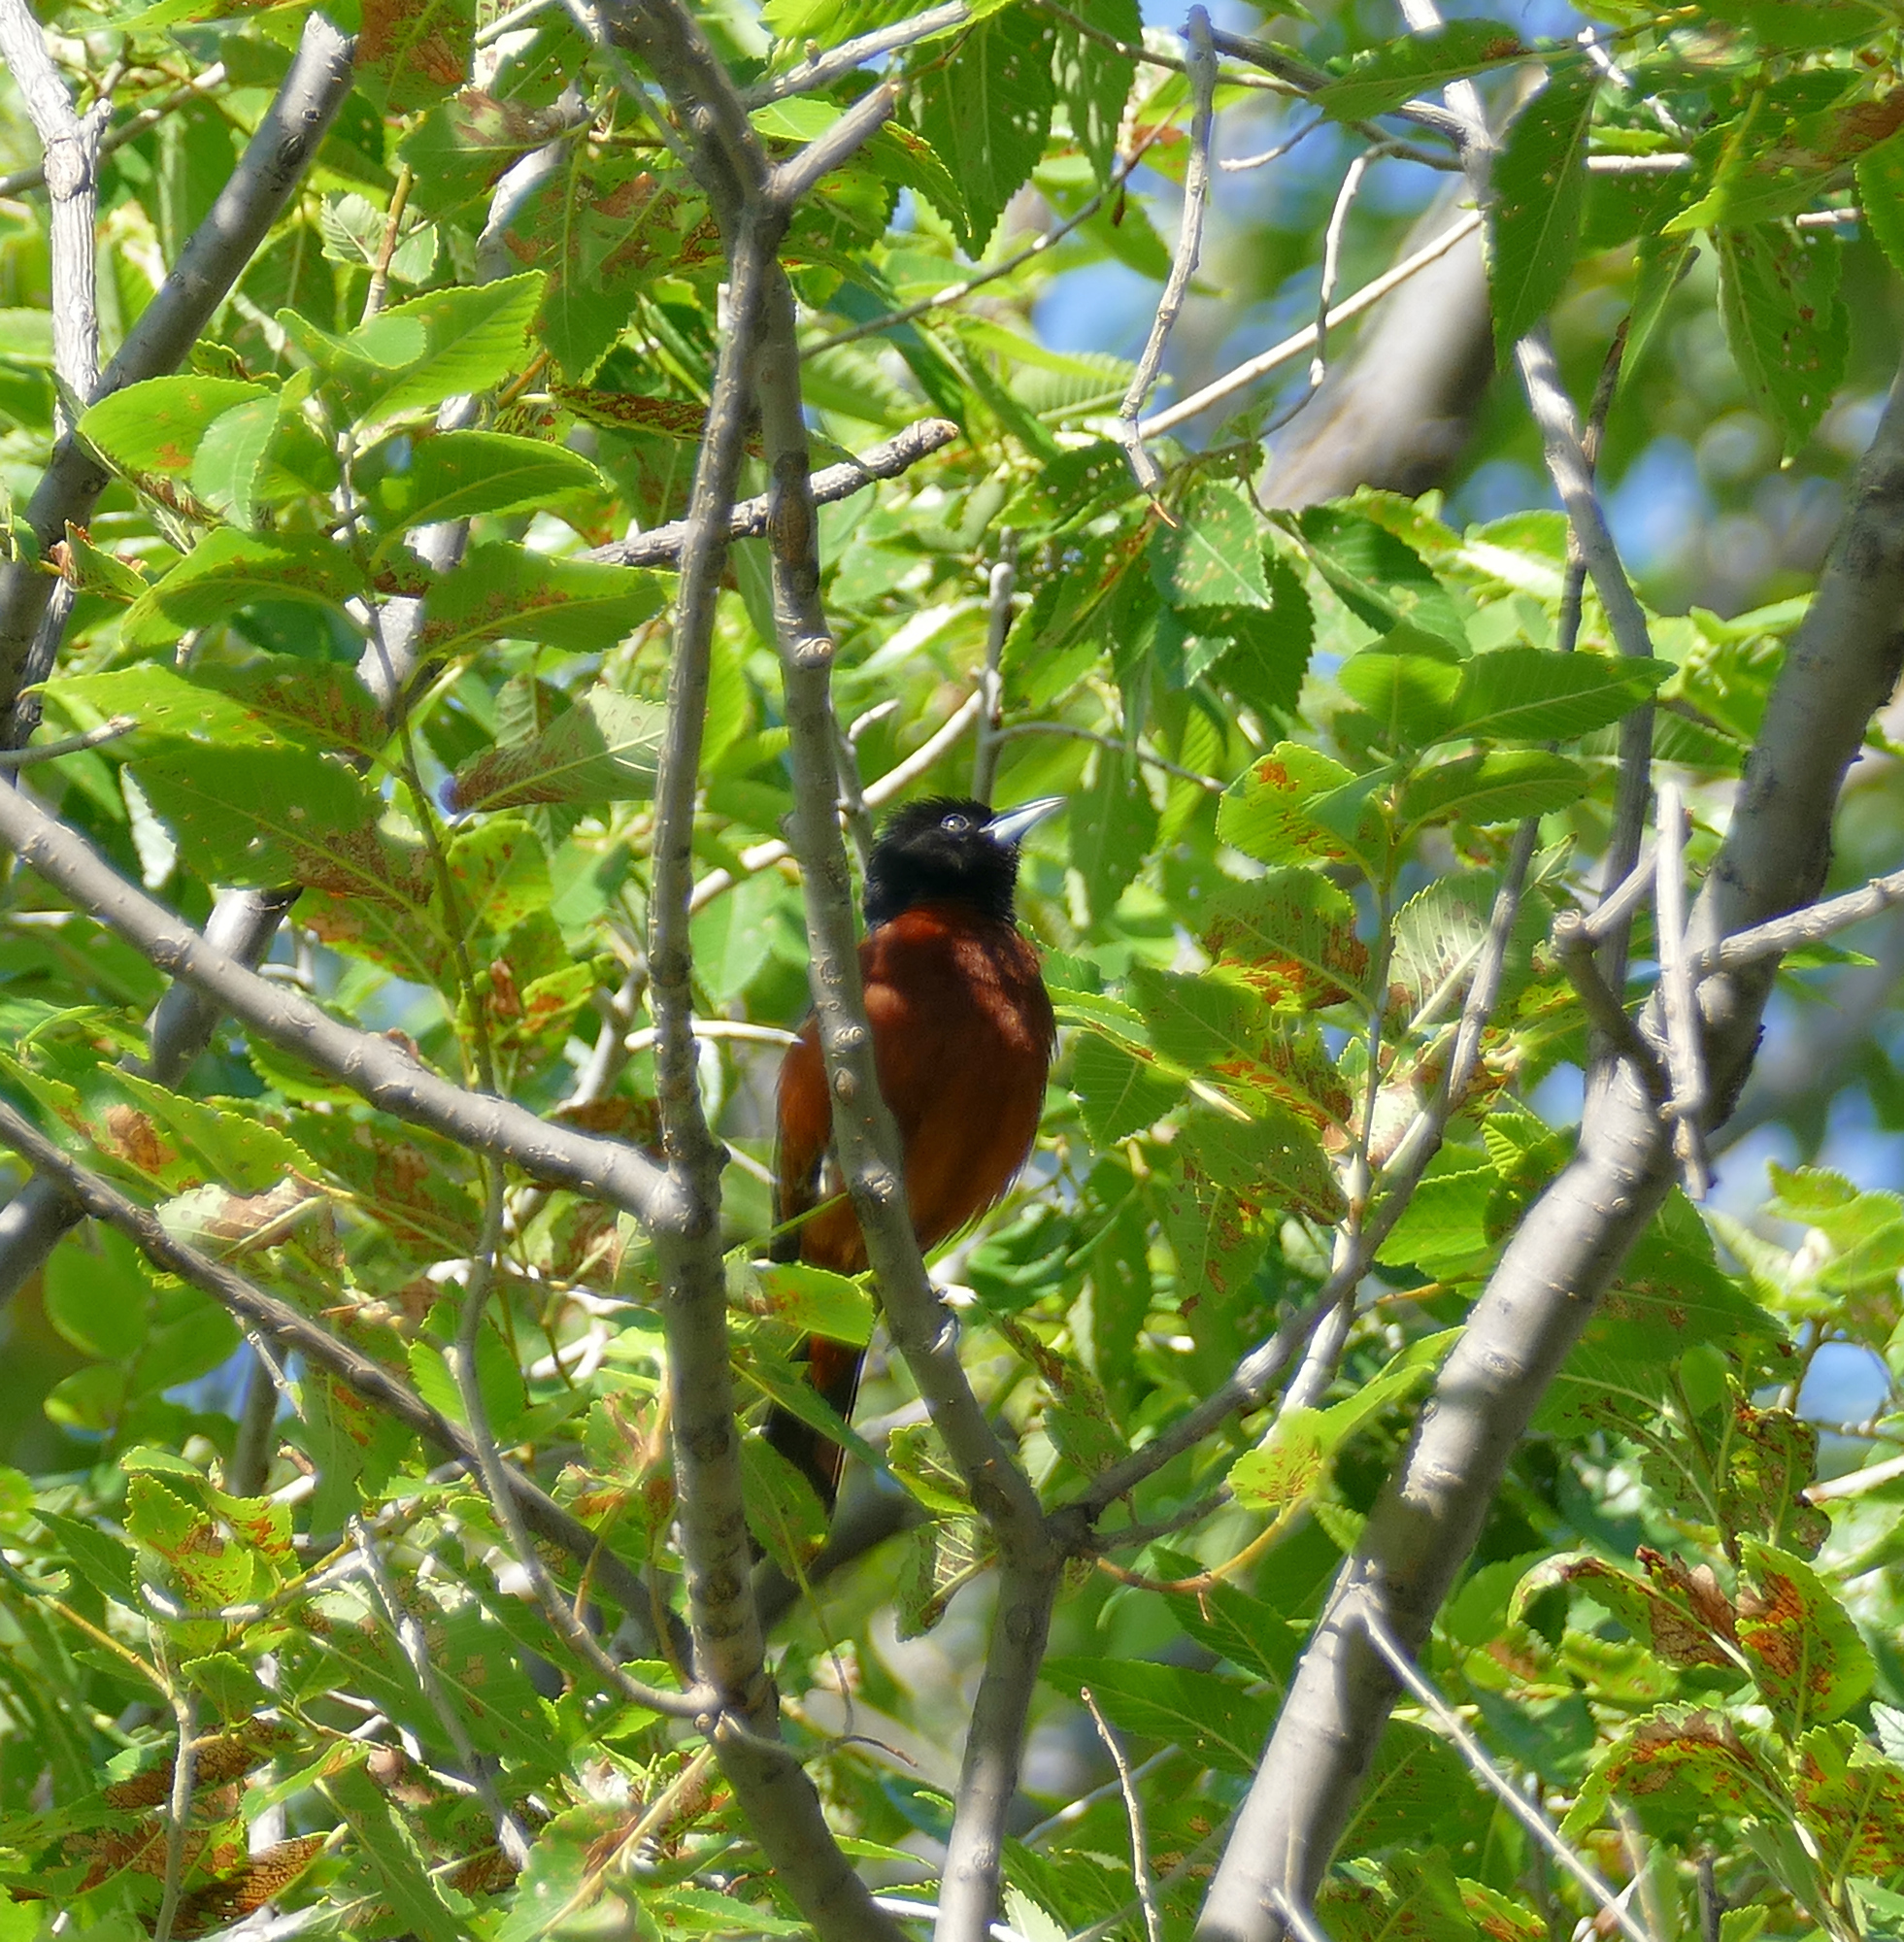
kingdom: Animalia
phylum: Chordata
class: Aves
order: Passeriformes
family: Icteridae
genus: Icterus
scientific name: Icterus spurius
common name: Orchard oriole
